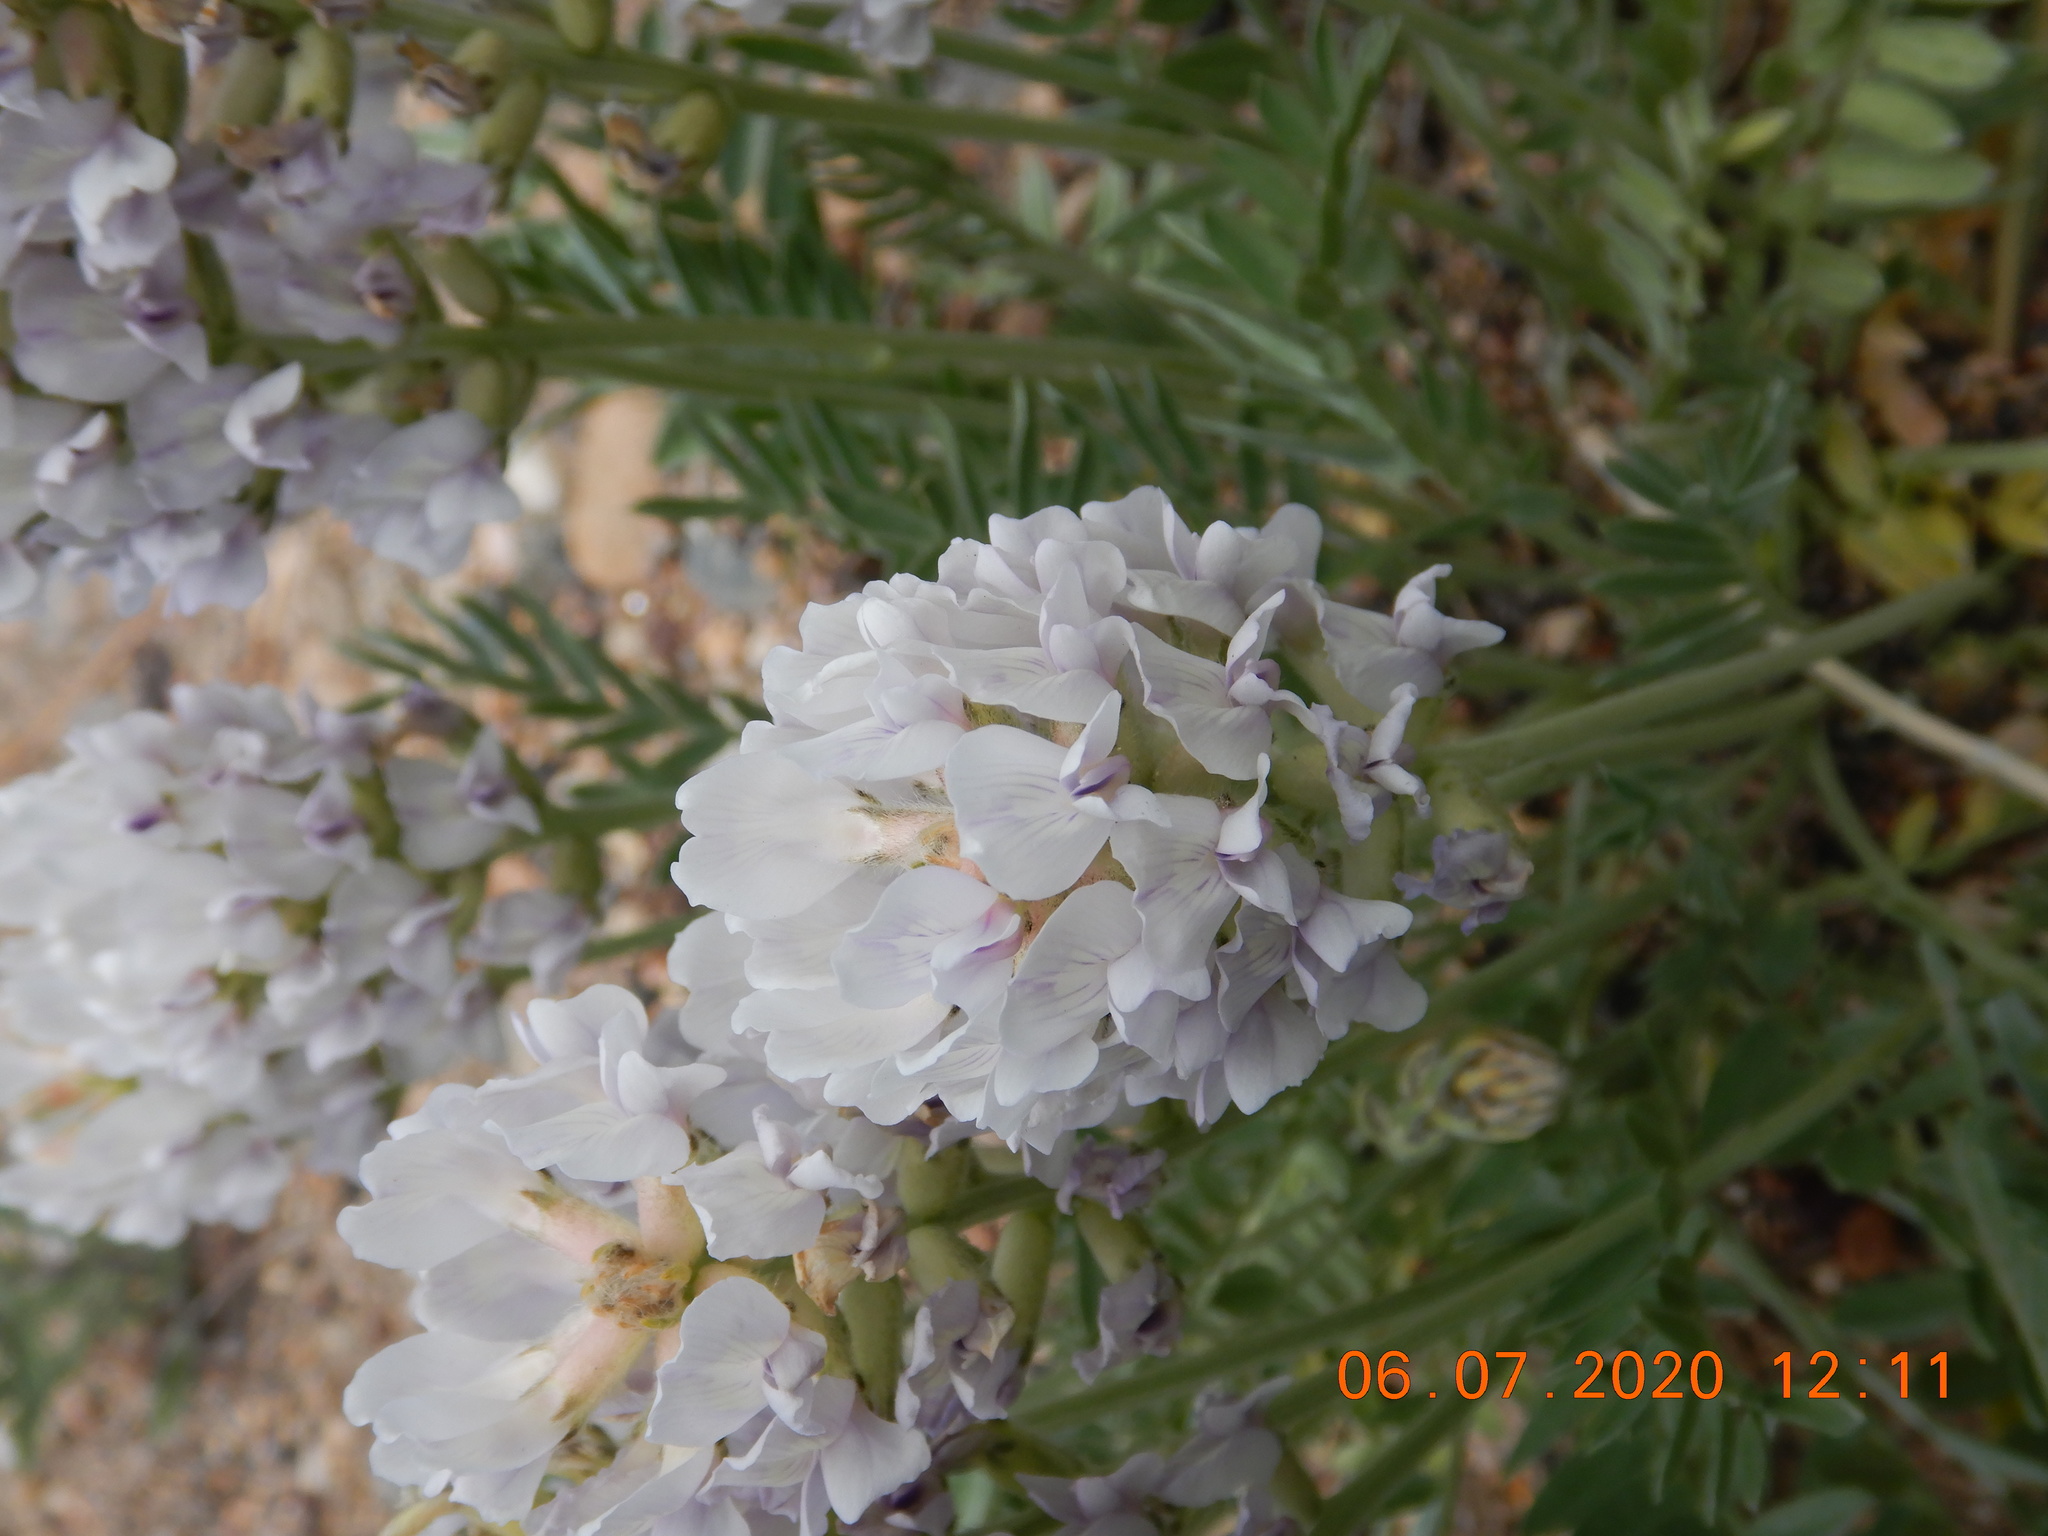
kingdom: Plantae
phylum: Tracheophyta
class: Magnoliopsida
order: Fabales
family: Fabaceae
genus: Oxytropis
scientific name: Oxytropis sericea
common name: Silky locoweed
